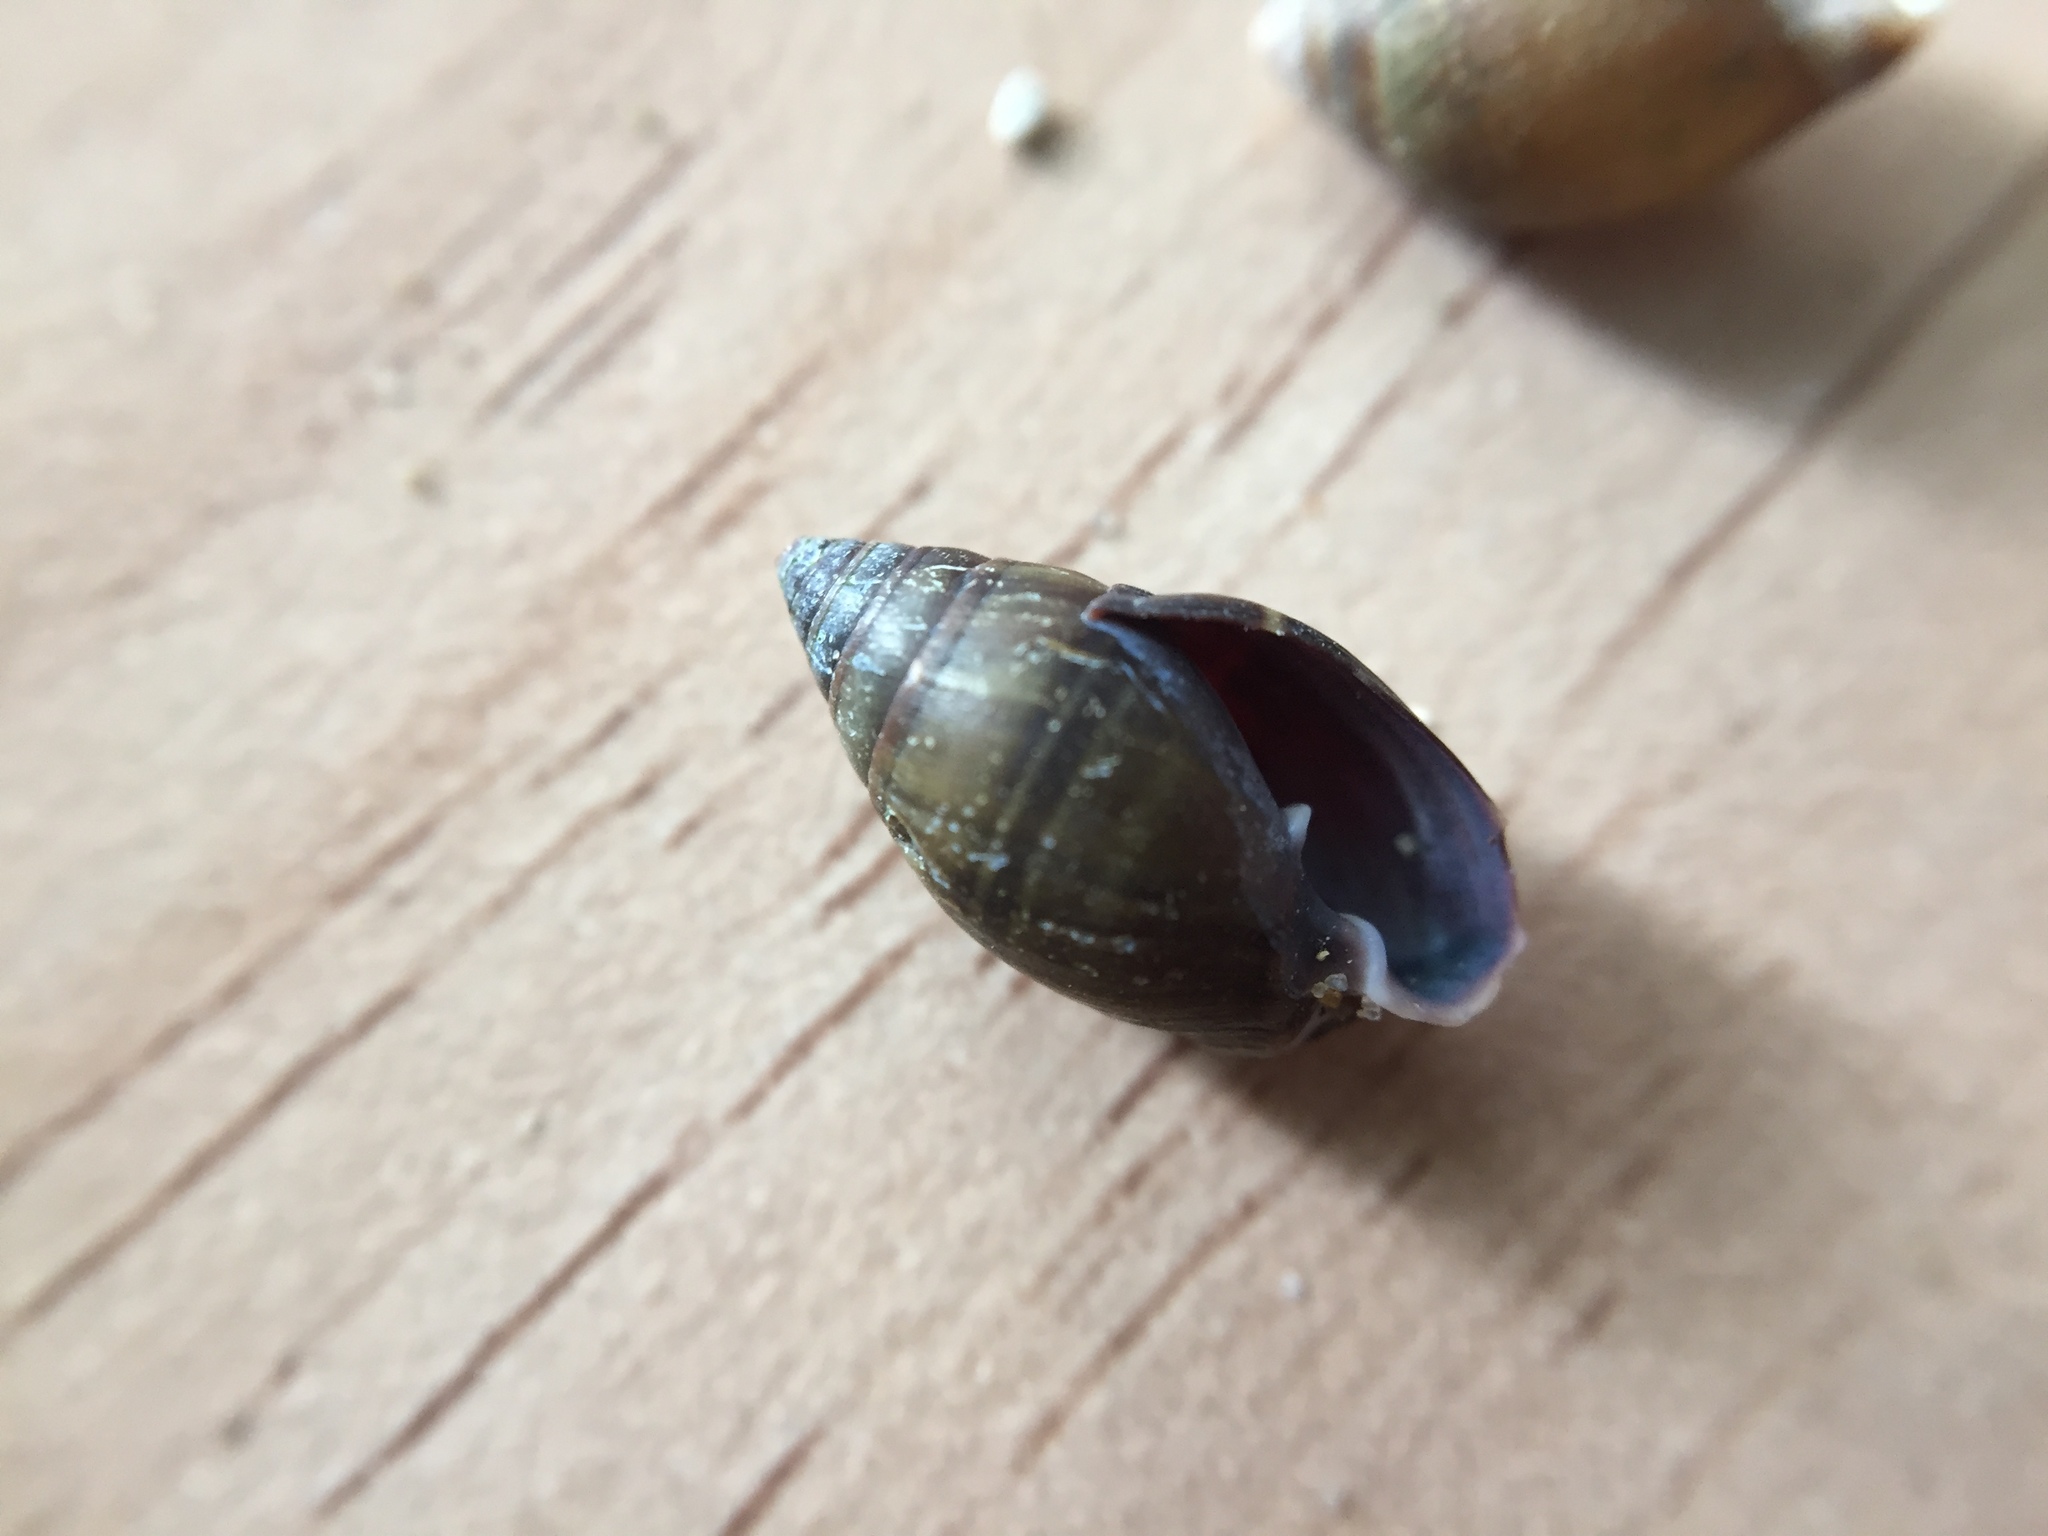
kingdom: Animalia
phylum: Mollusca
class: Gastropoda
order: Ellobiida
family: Ellobiidae
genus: Pleuroloba
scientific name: Pleuroloba costellaris
